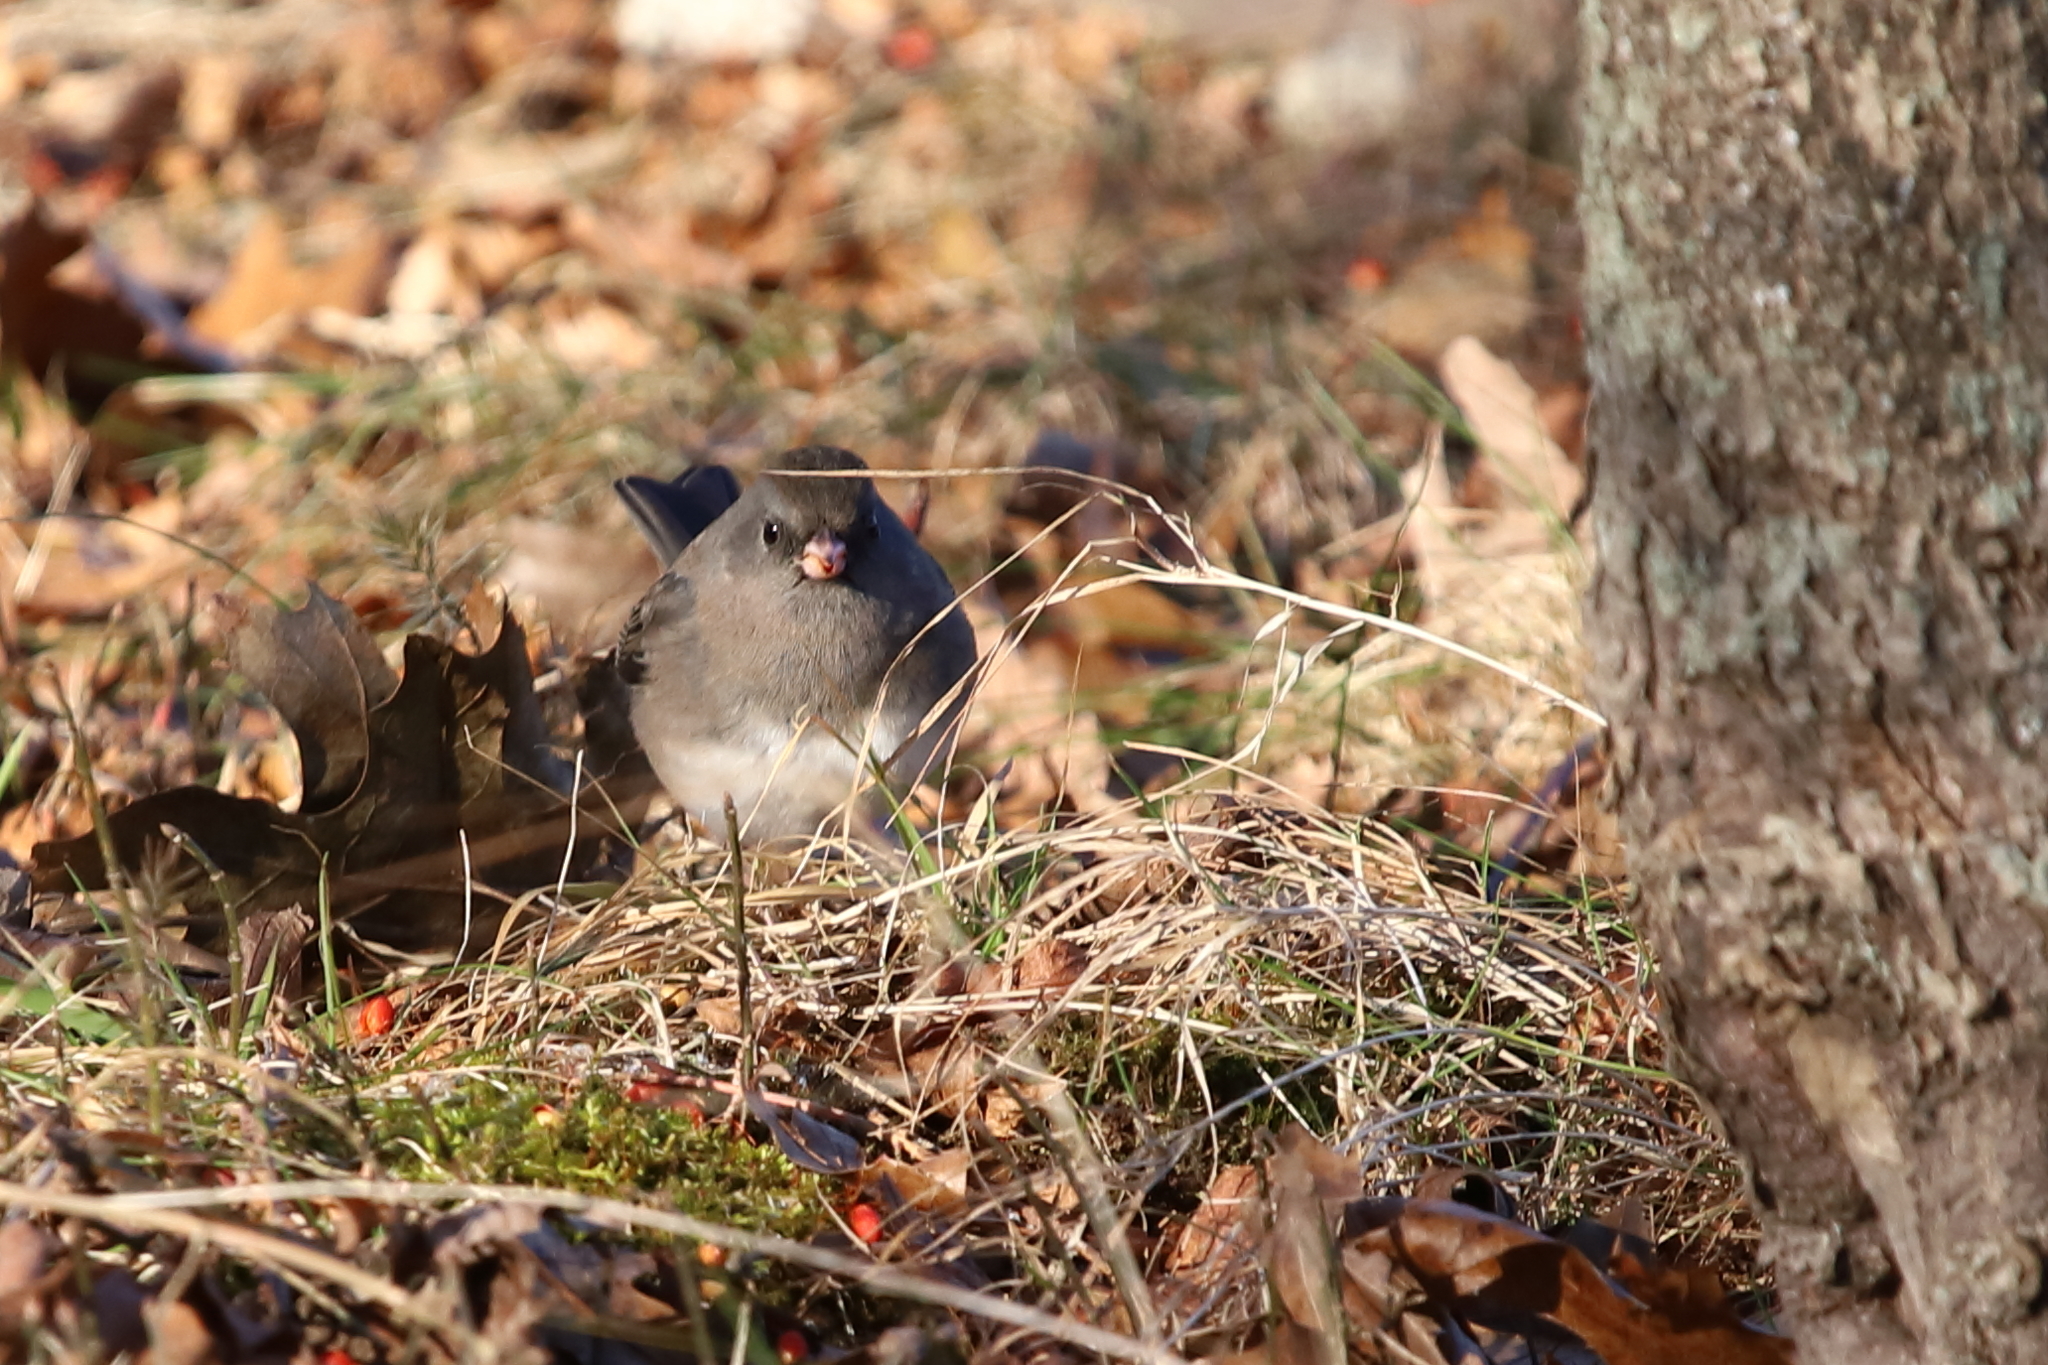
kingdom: Animalia
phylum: Chordata
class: Aves
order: Passeriformes
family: Passerellidae
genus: Junco
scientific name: Junco hyemalis
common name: Dark-eyed junco
